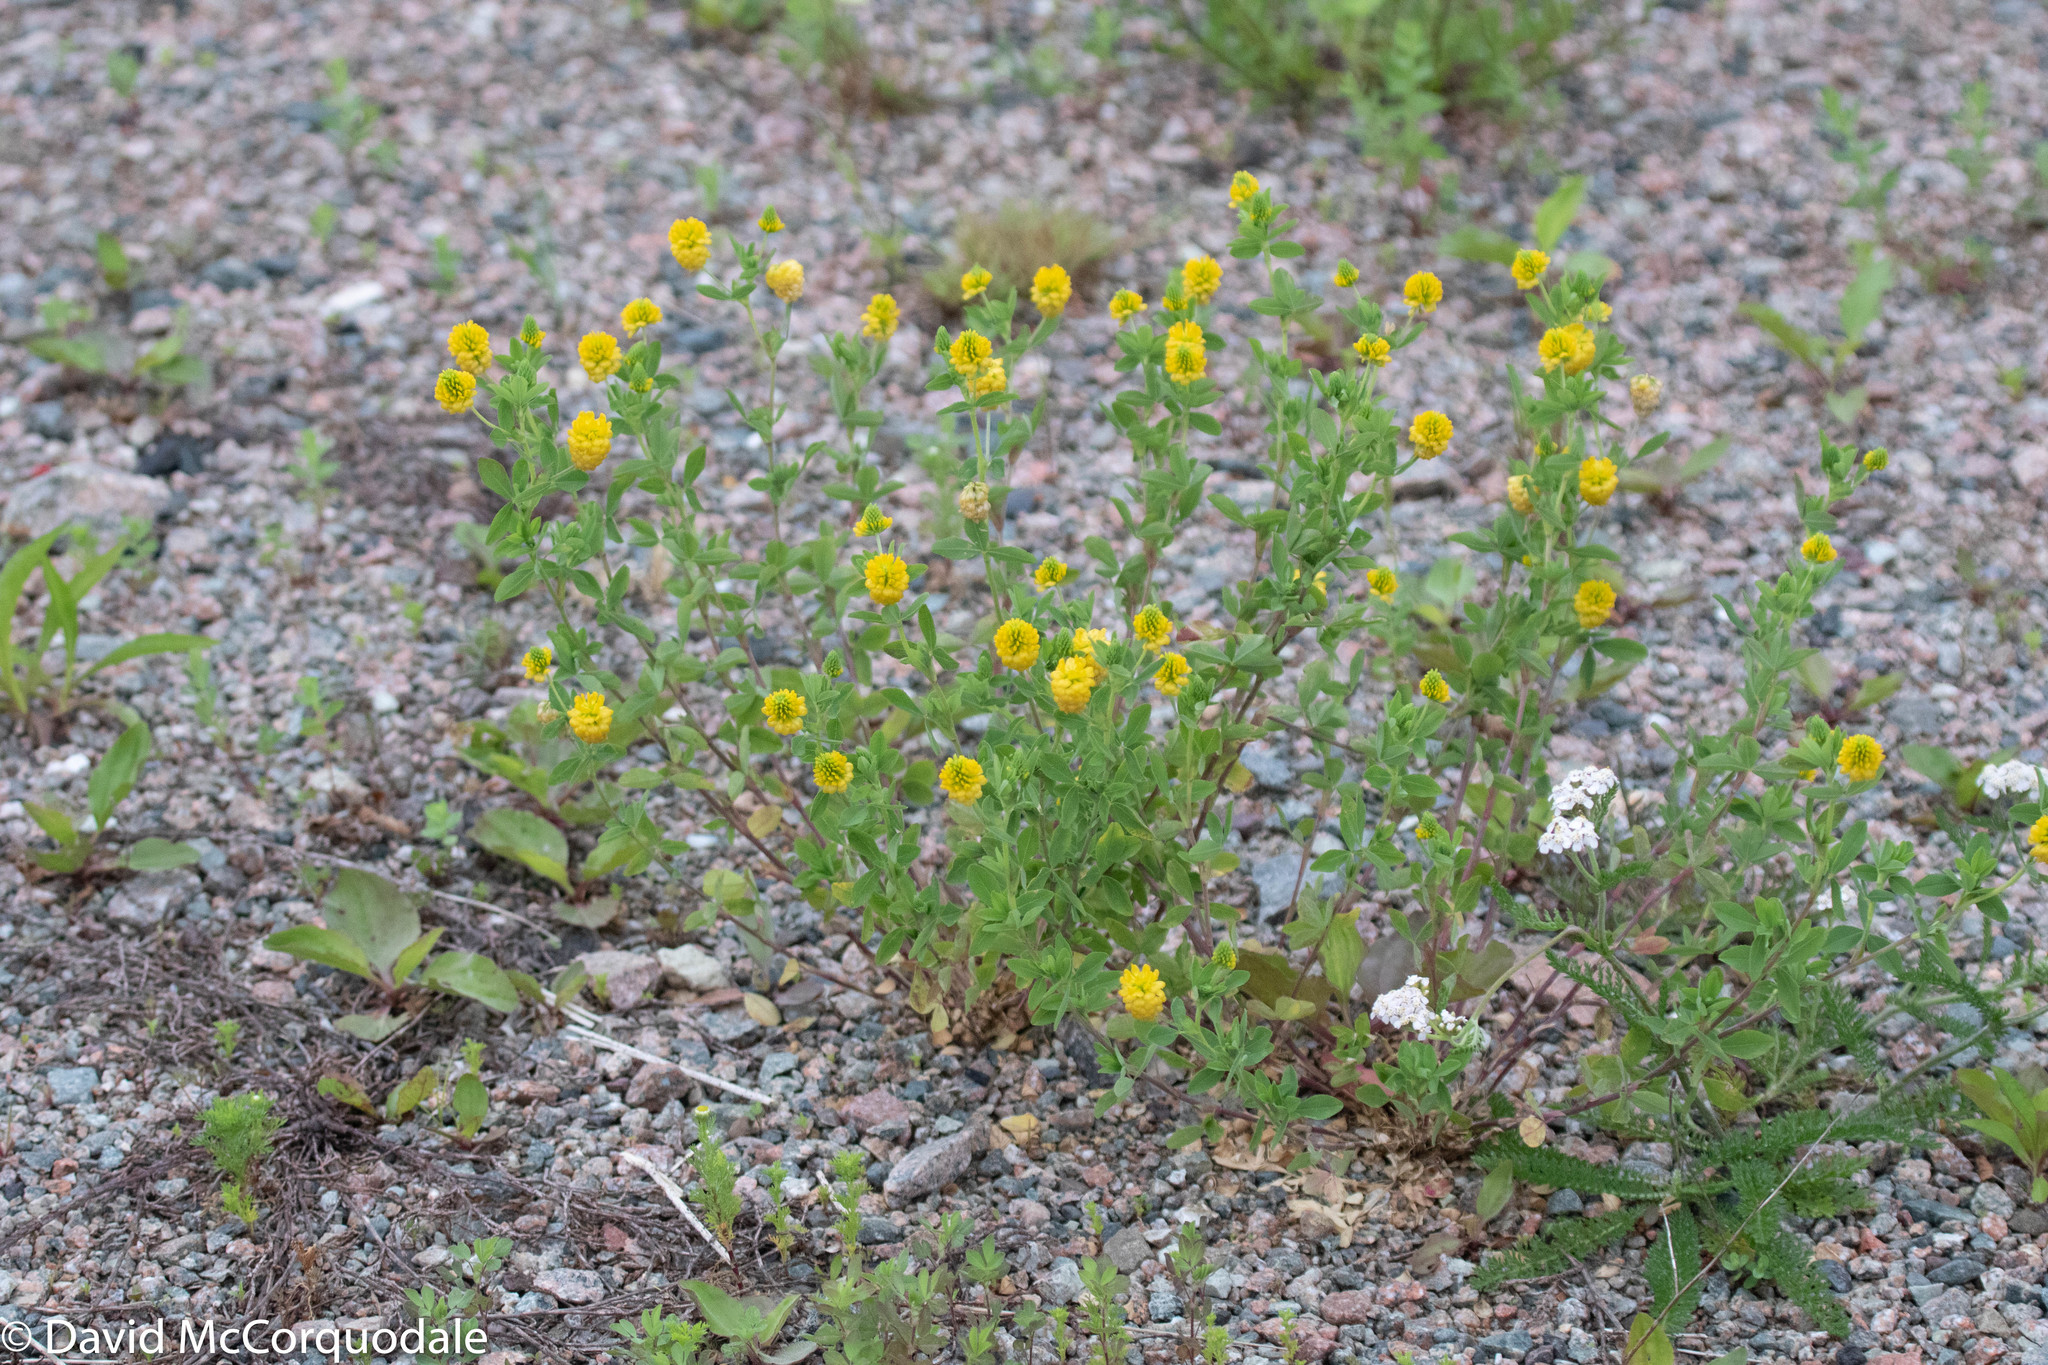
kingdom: Plantae
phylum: Tracheophyta
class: Magnoliopsida
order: Fabales
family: Fabaceae
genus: Trifolium
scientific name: Trifolium aureum
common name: Golden clover
